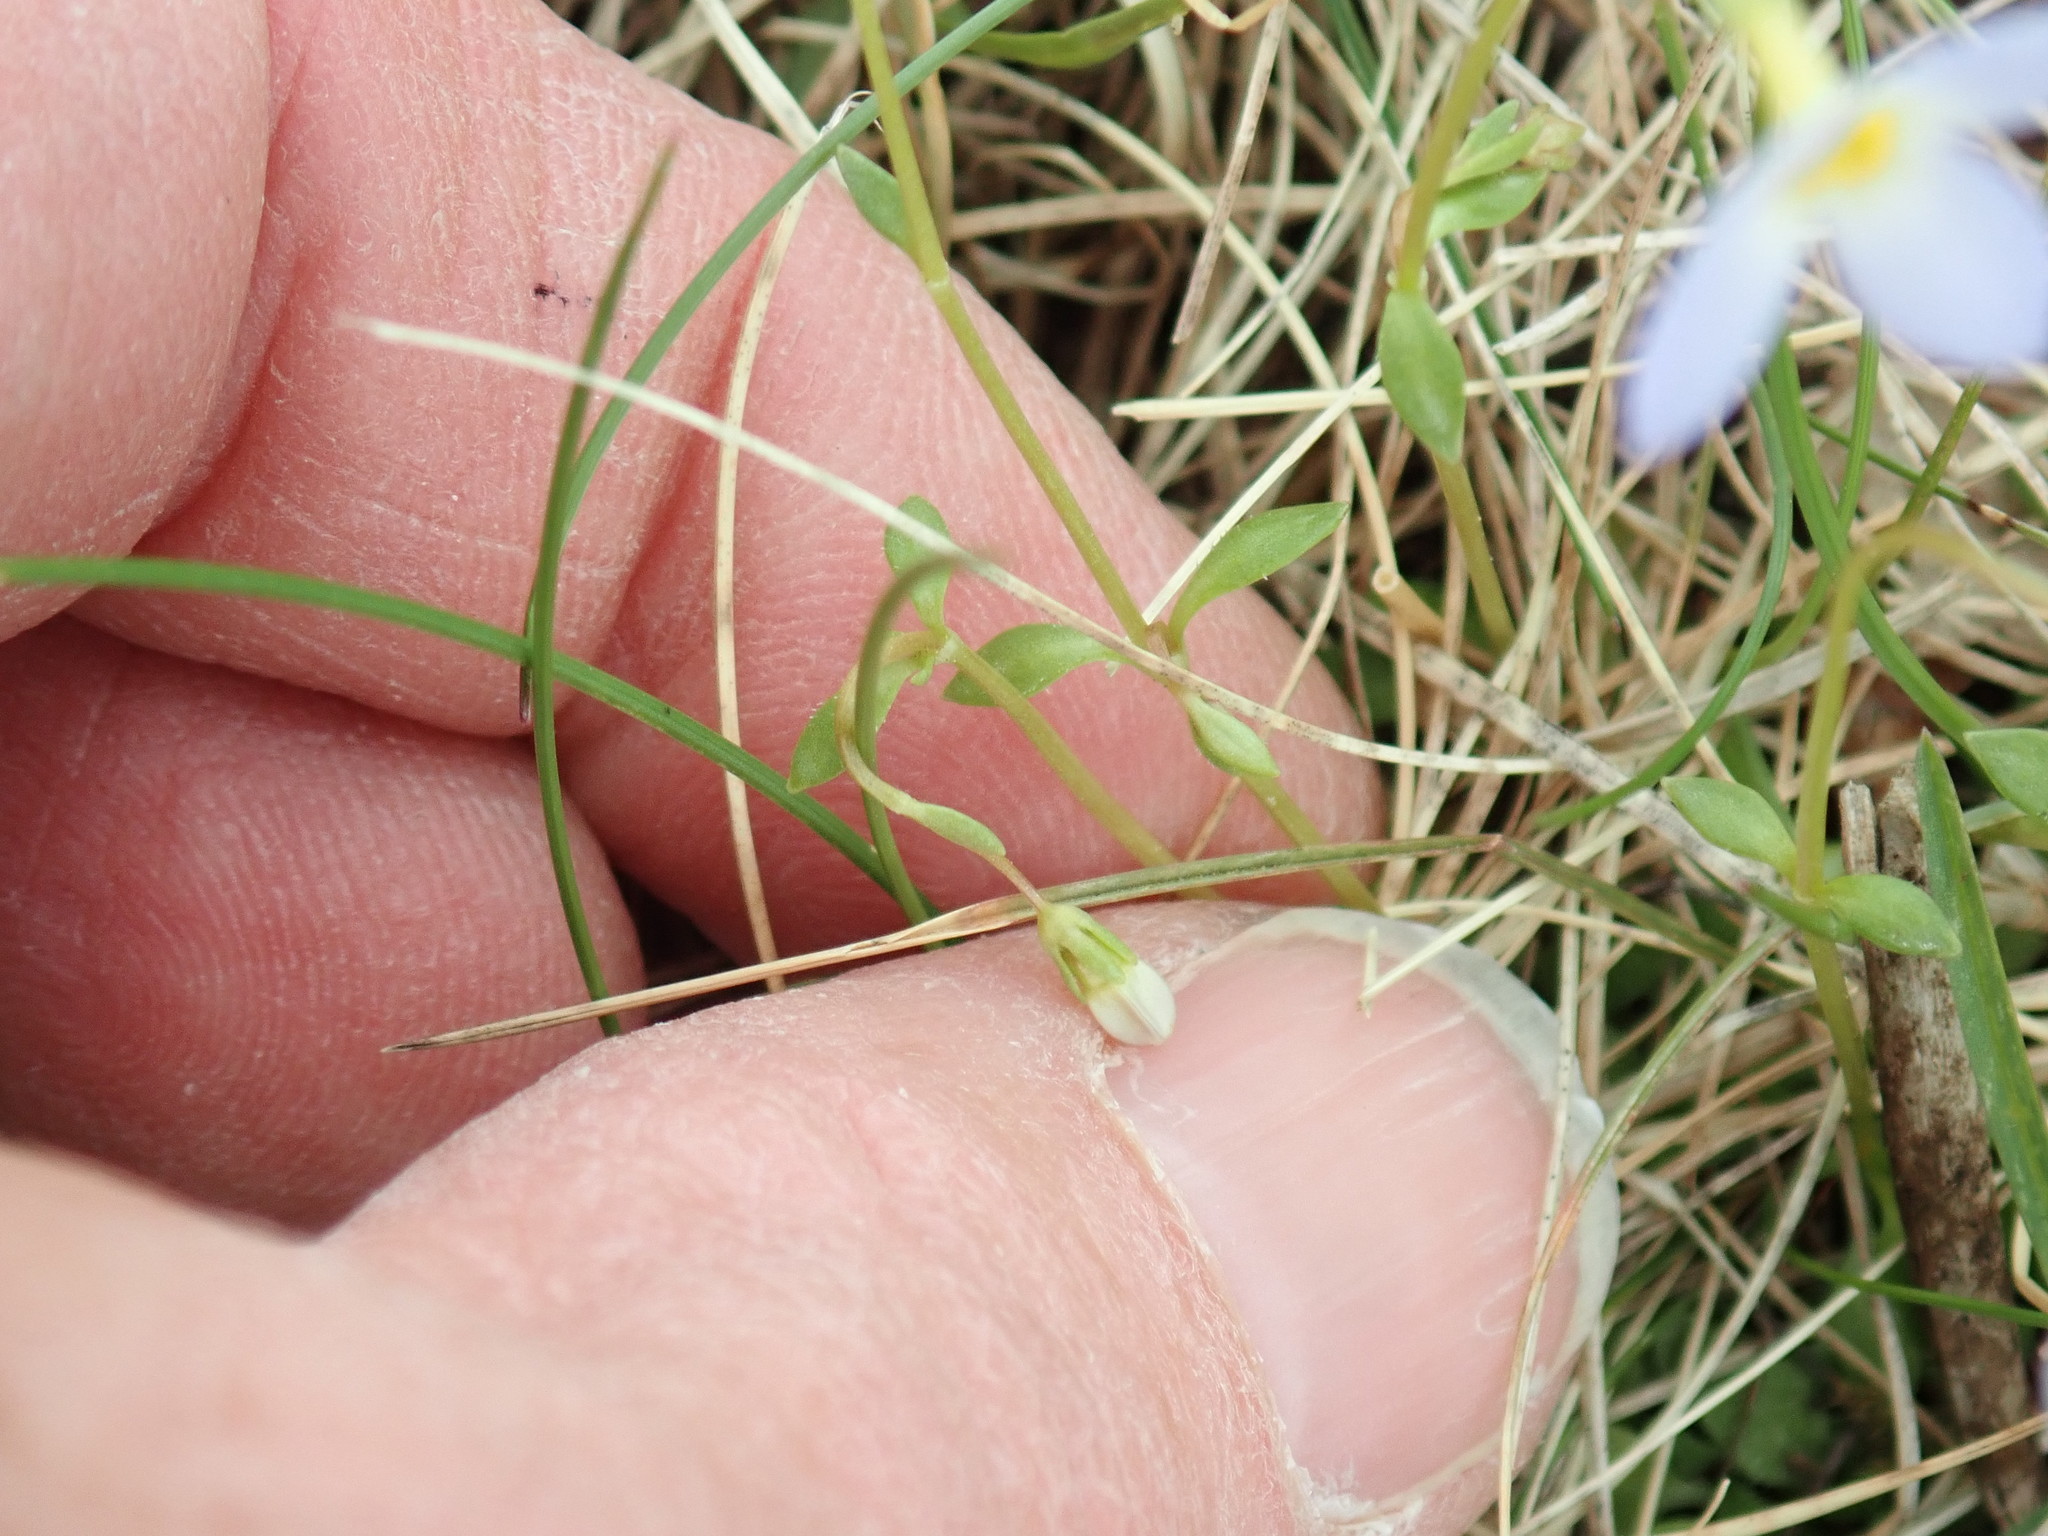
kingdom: Plantae
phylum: Tracheophyta
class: Magnoliopsida
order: Gentianales
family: Rubiaceae
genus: Houstonia
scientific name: Houstonia caerulea
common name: Bluets
